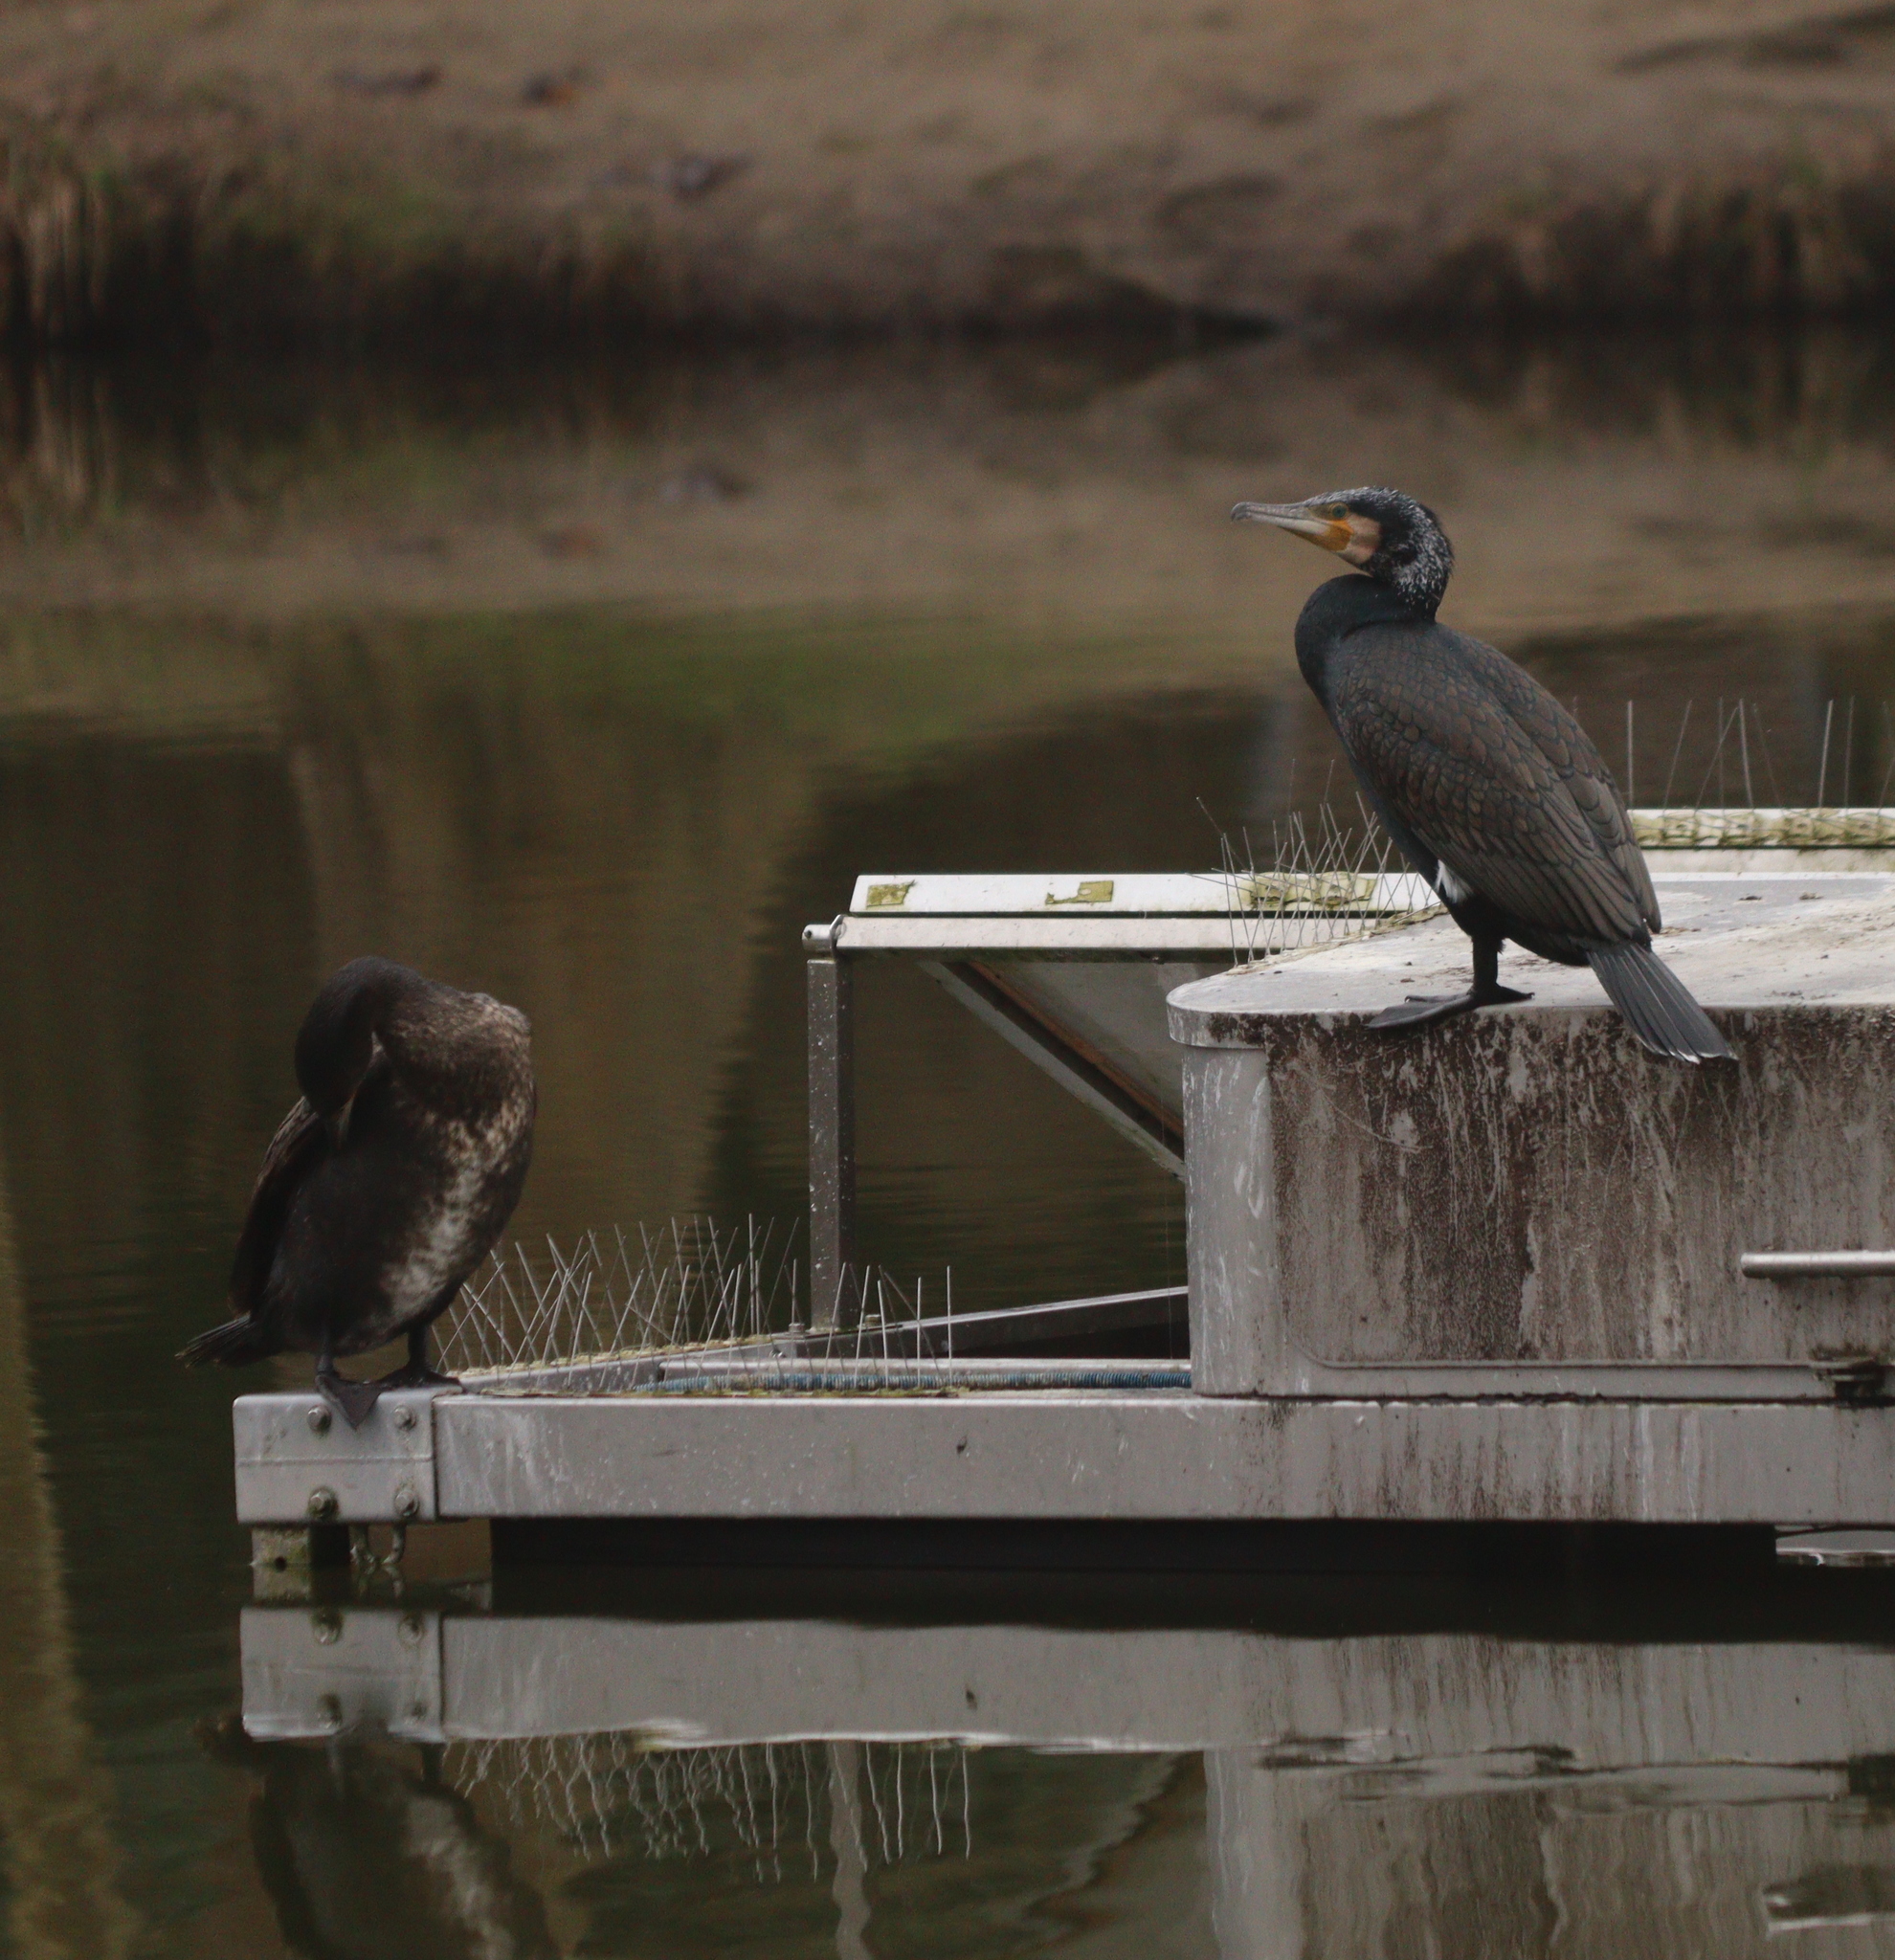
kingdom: Animalia
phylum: Chordata
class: Aves
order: Suliformes
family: Phalacrocoracidae
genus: Phalacrocorax
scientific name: Phalacrocorax carbo
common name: Great cormorant
